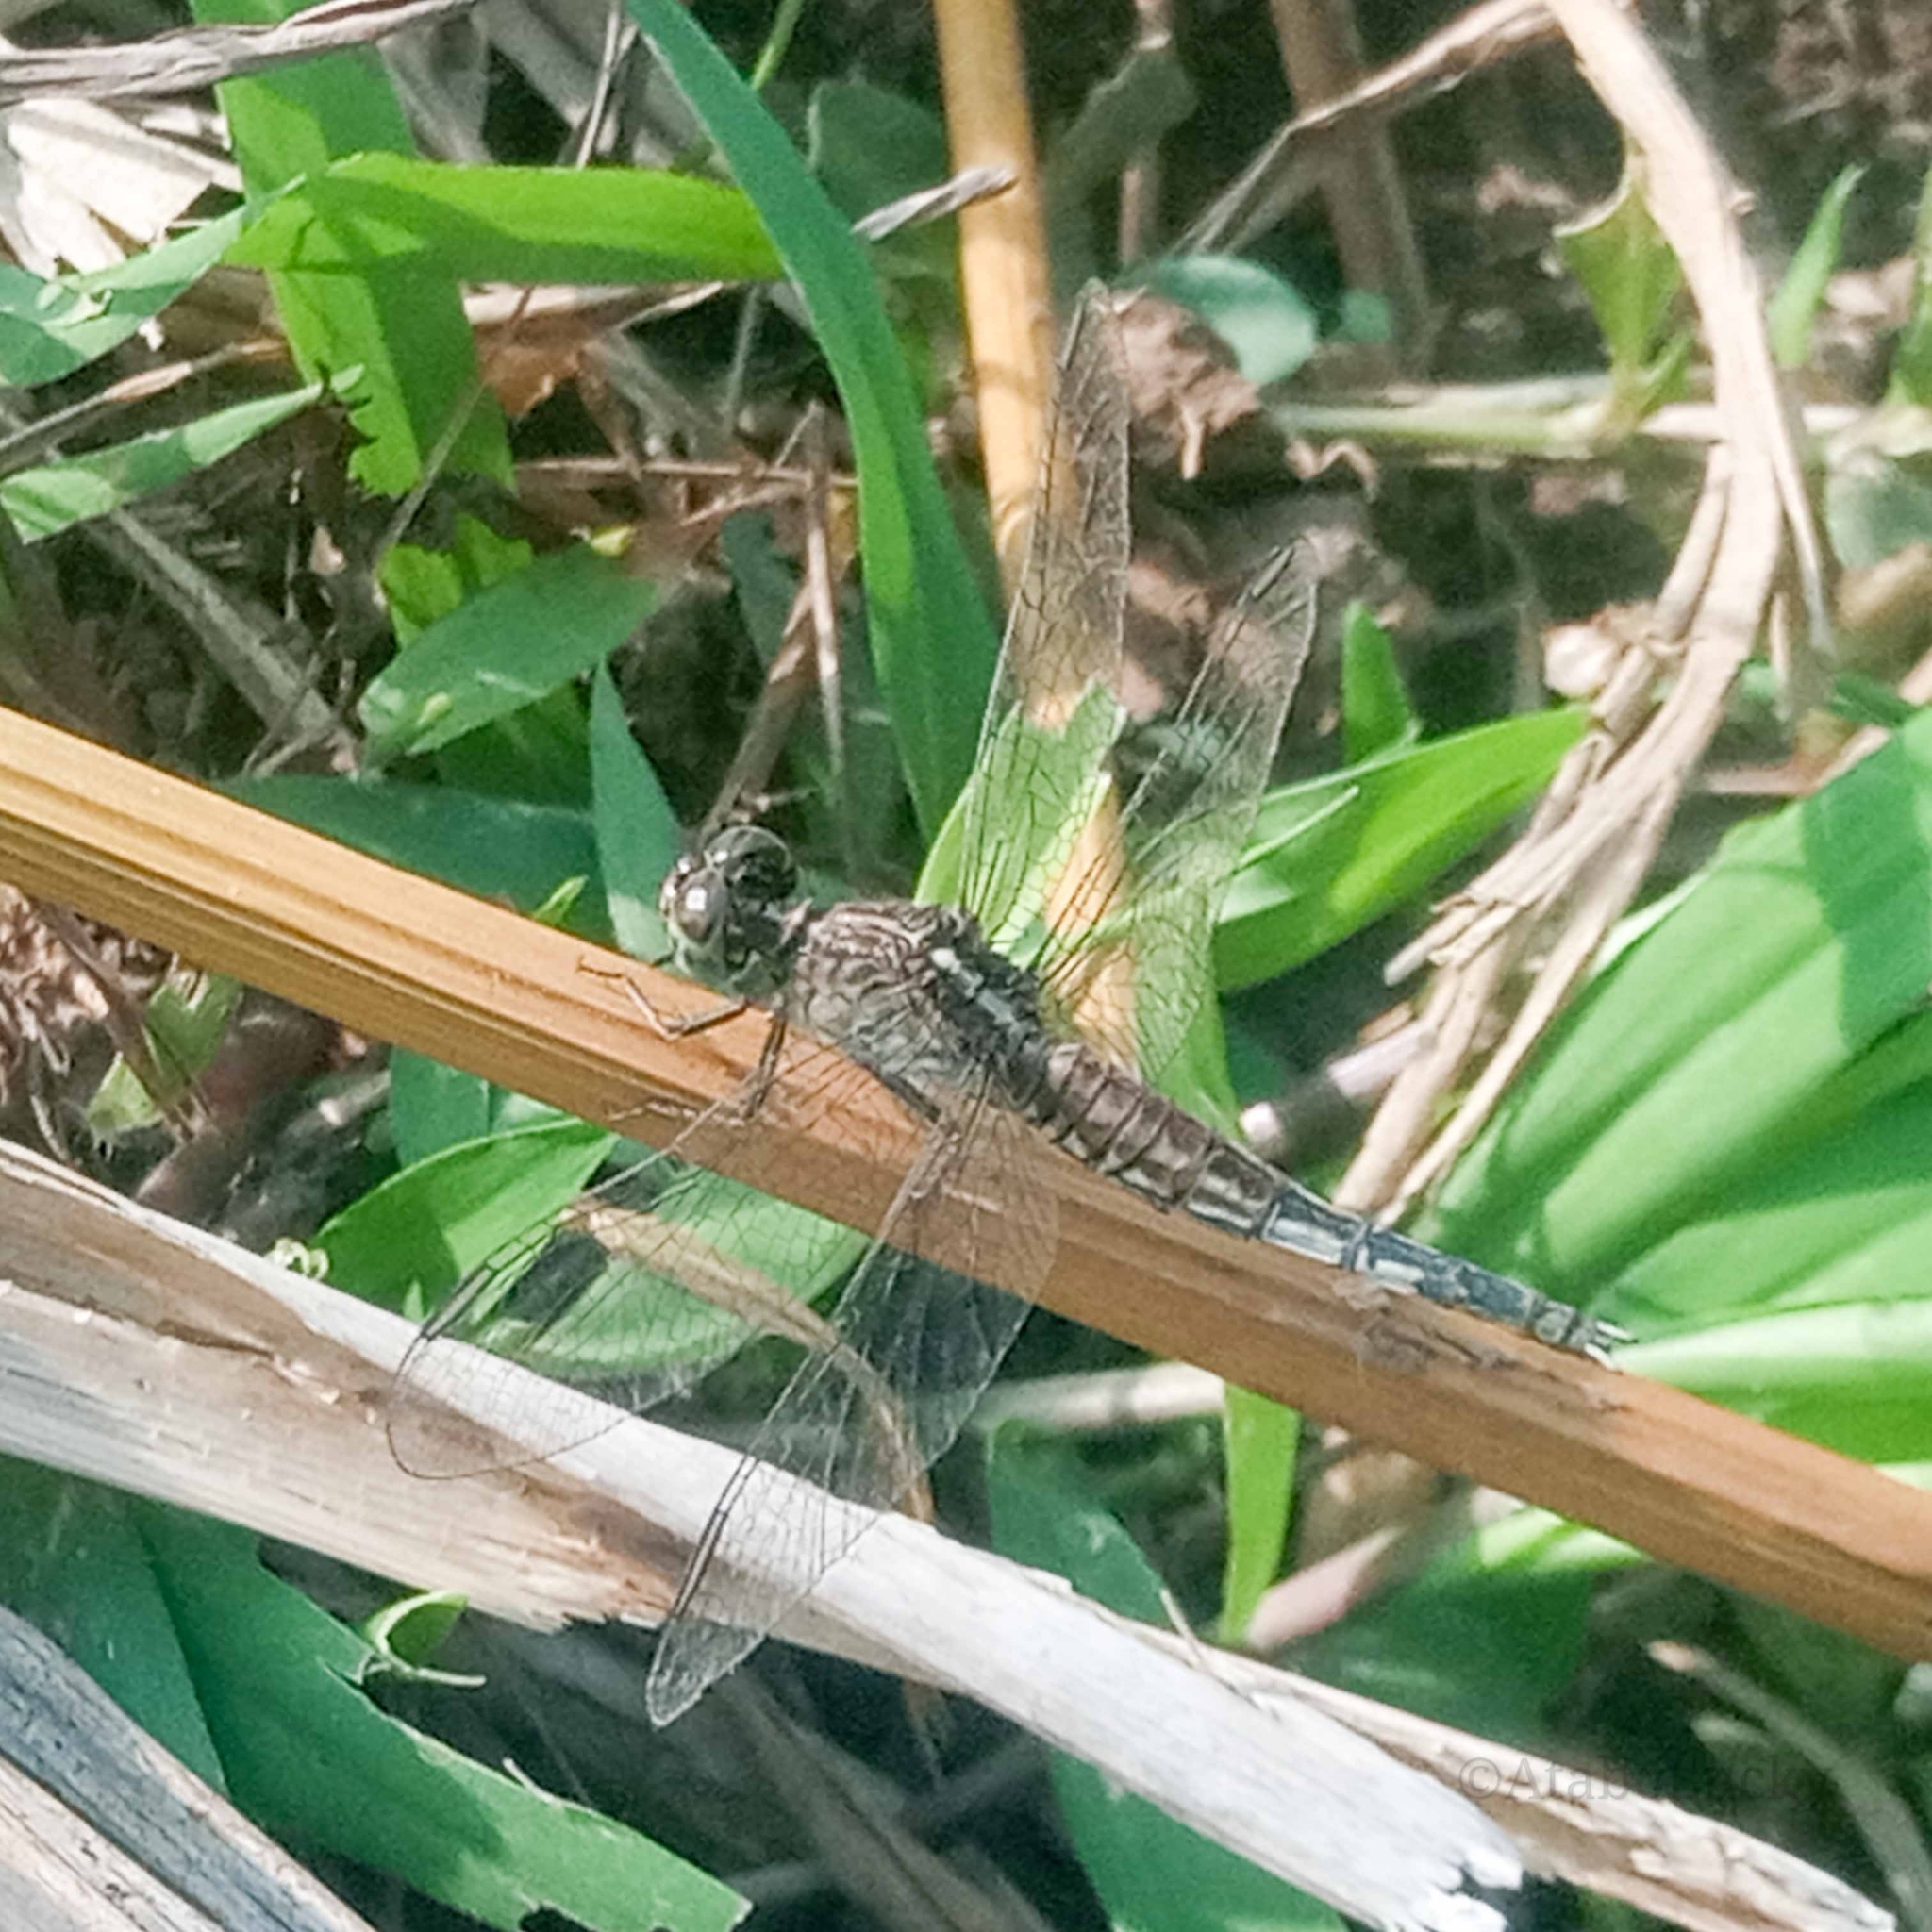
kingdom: Animalia
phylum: Arthropoda
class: Insecta
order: Odonata
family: Libellulidae
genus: Acisoma
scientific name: Acisoma inflatum
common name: Stout pintail
